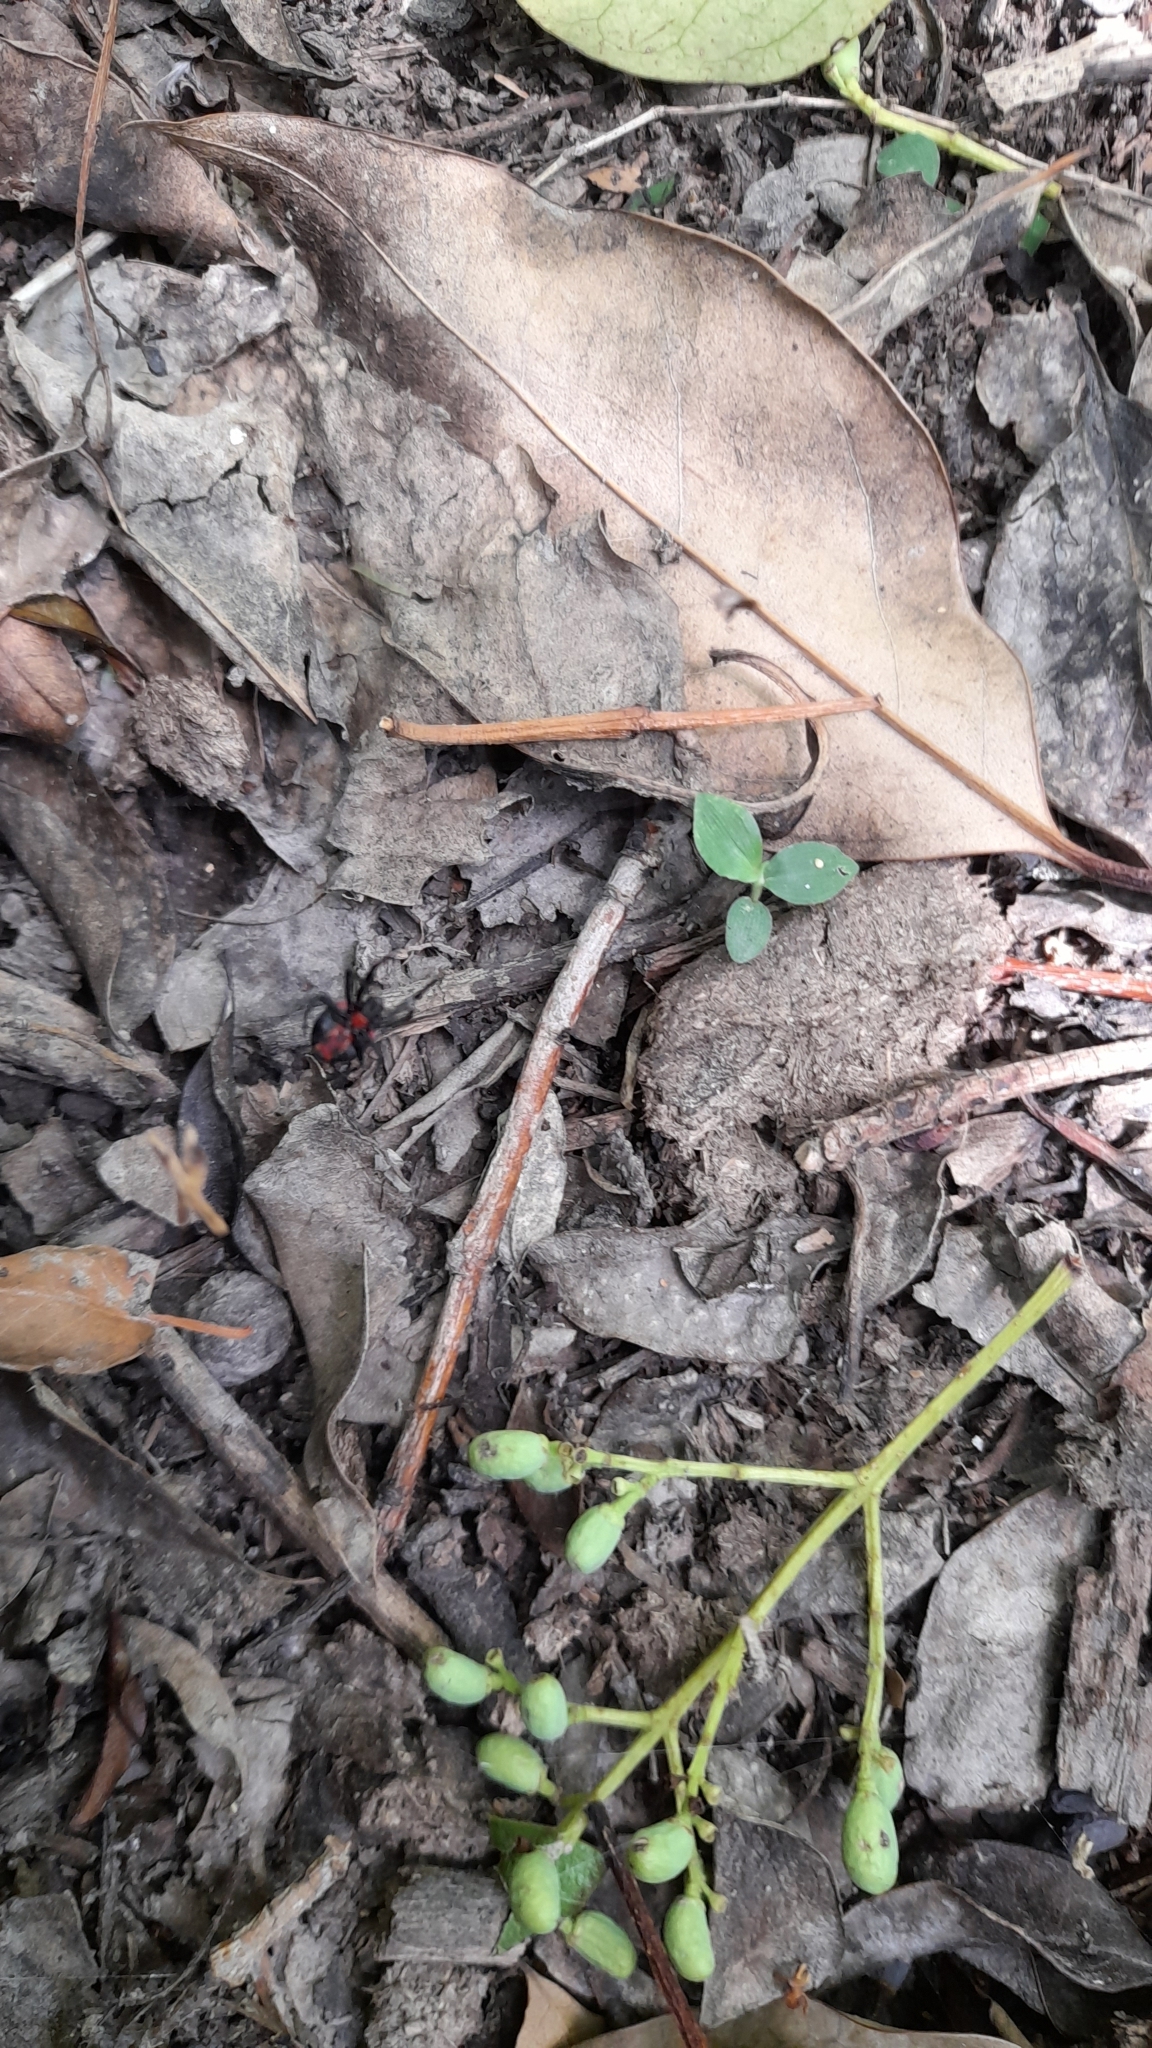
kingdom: Animalia
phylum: Arthropoda
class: Arachnida
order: Araneae
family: Araneidae
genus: Alpaida
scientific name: Alpaida carminea
